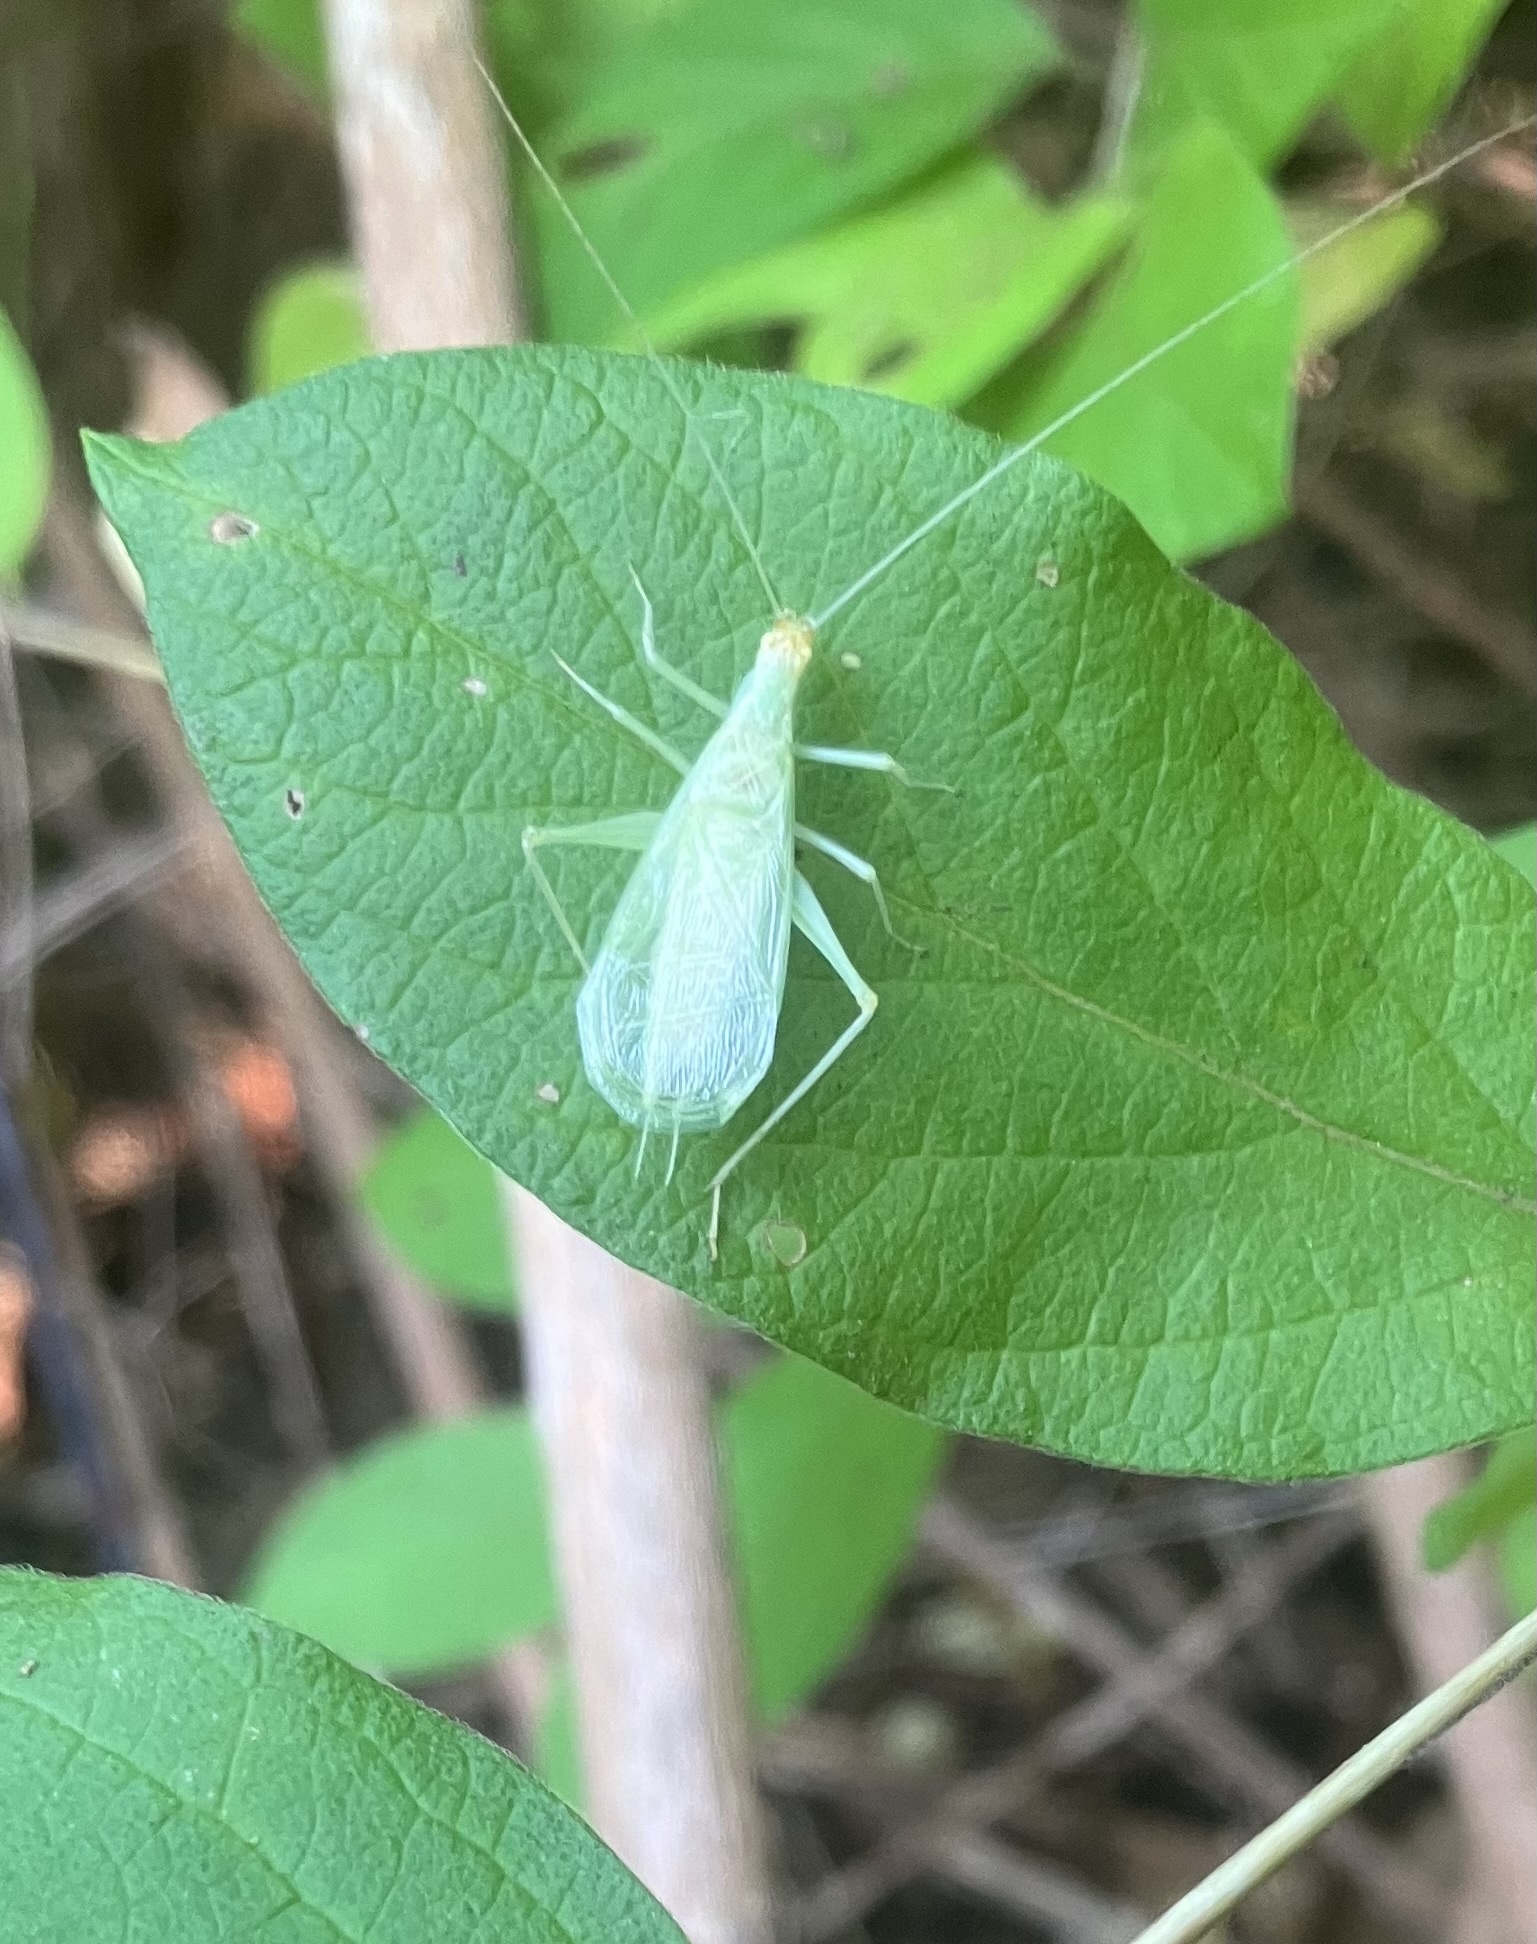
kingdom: Animalia
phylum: Arthropoda
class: Insecta
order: Orthoptera
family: Gryllidae
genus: Oecanthus
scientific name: Oecanthus fultoni
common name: Snowy tree cricket
